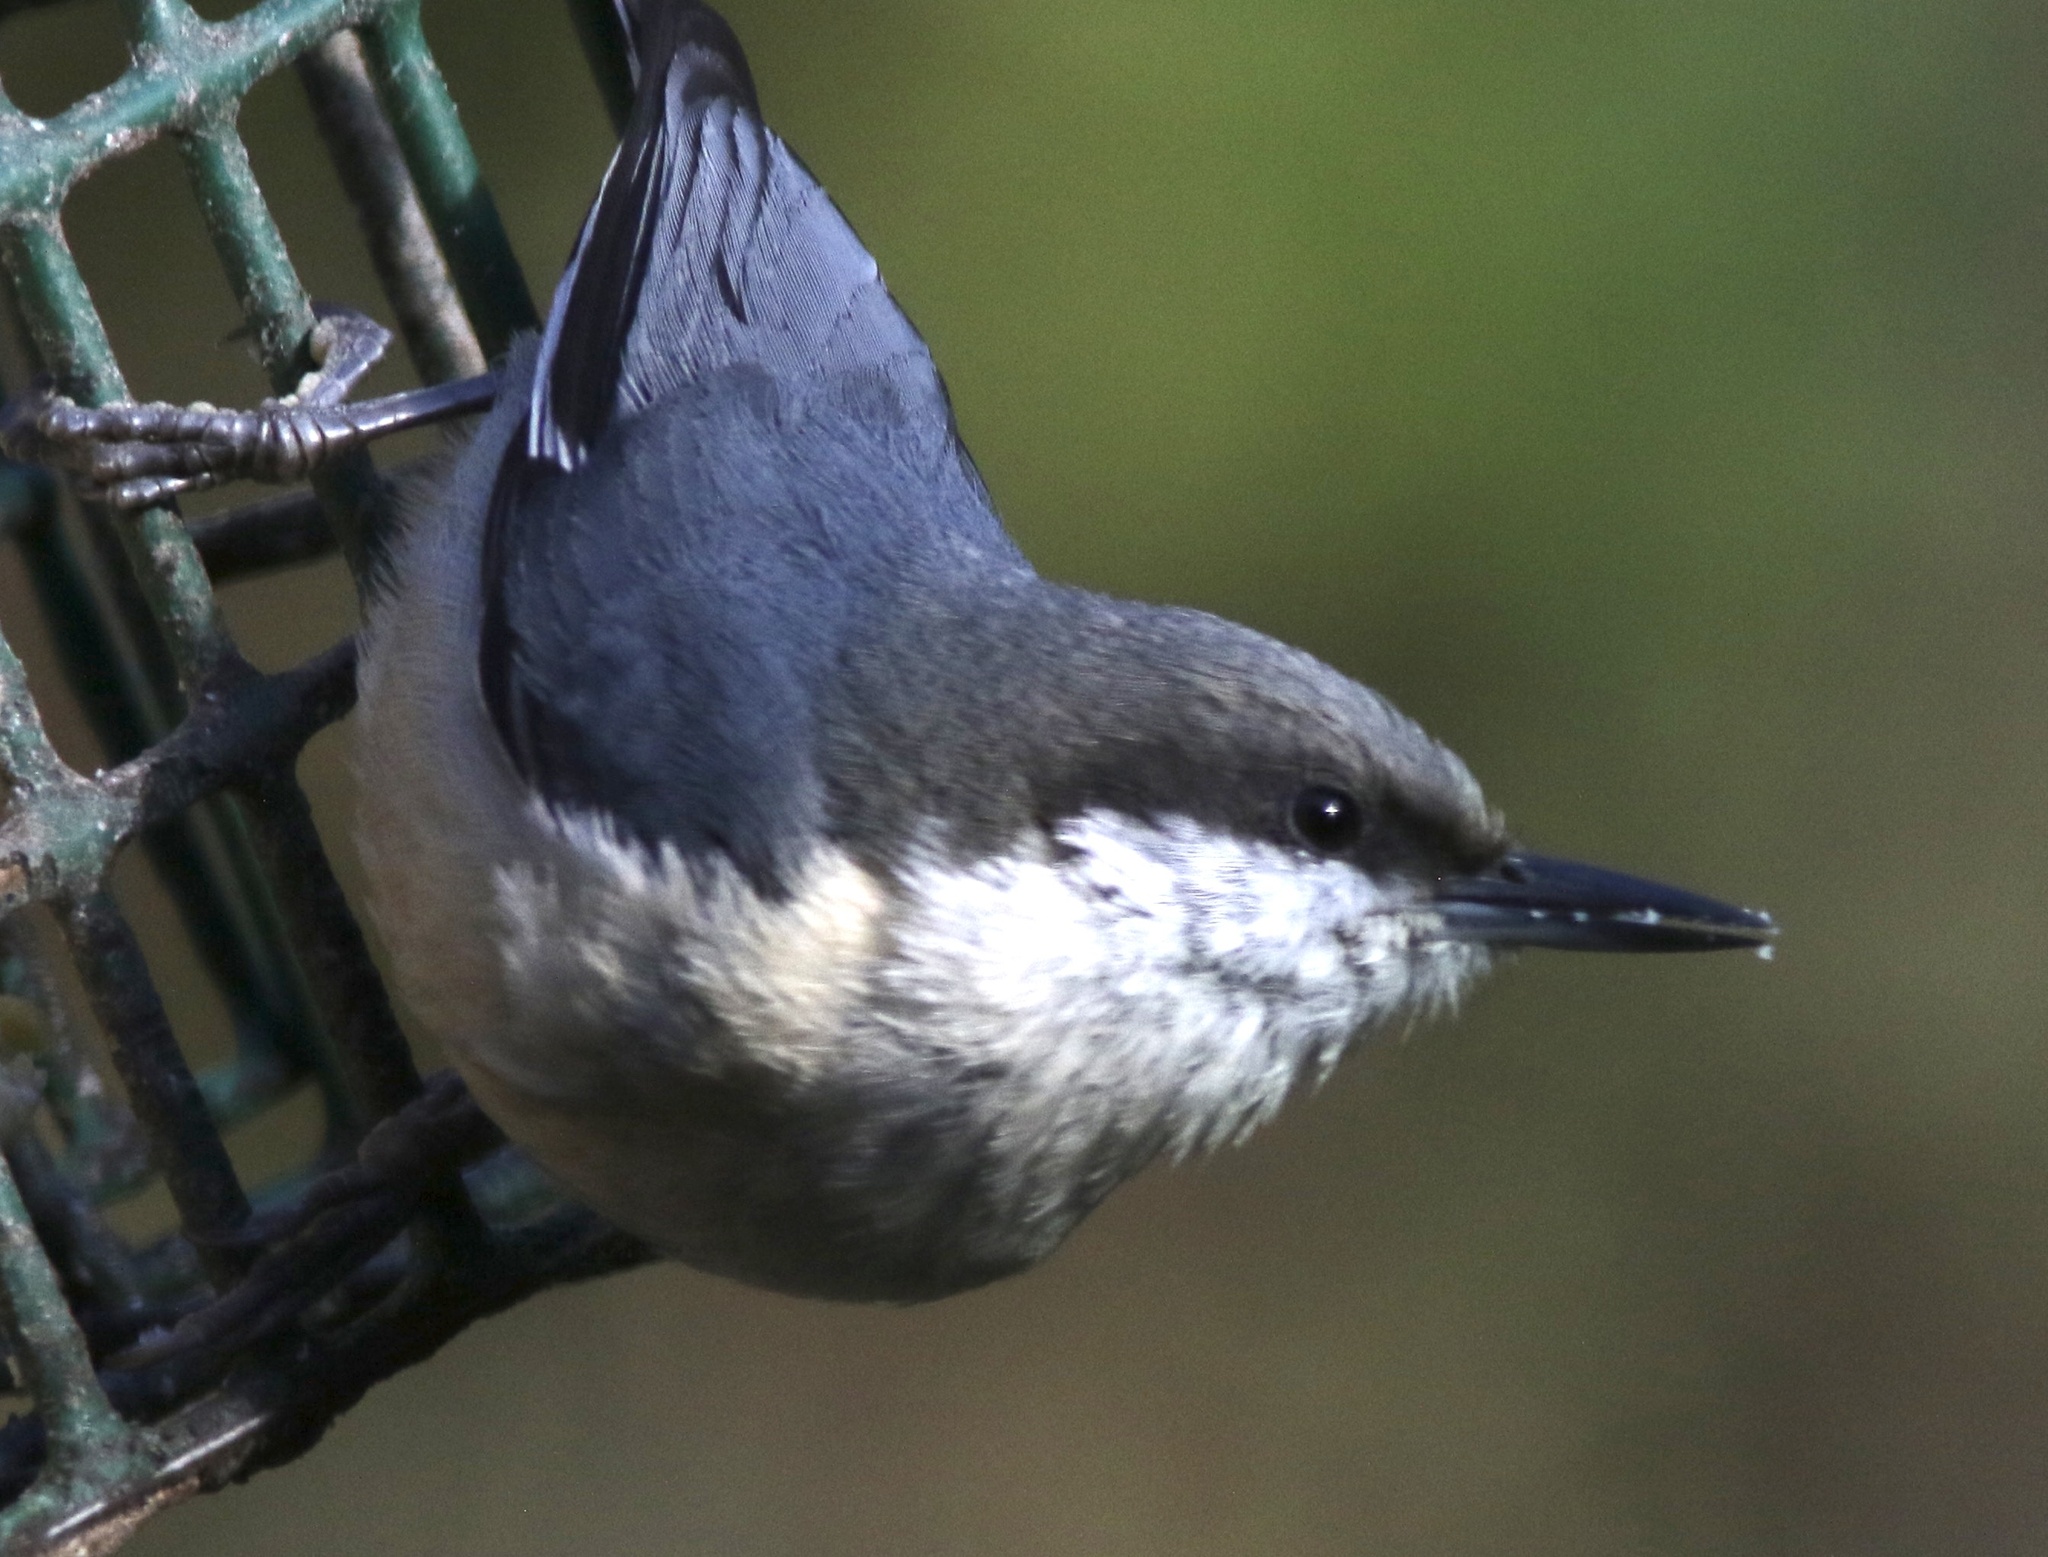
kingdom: Animalia
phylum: Chordata
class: Aves
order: Passeriformes
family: Sittidae
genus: Sitta
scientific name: Sitta pygmaea
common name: Pygmy nuthatch
